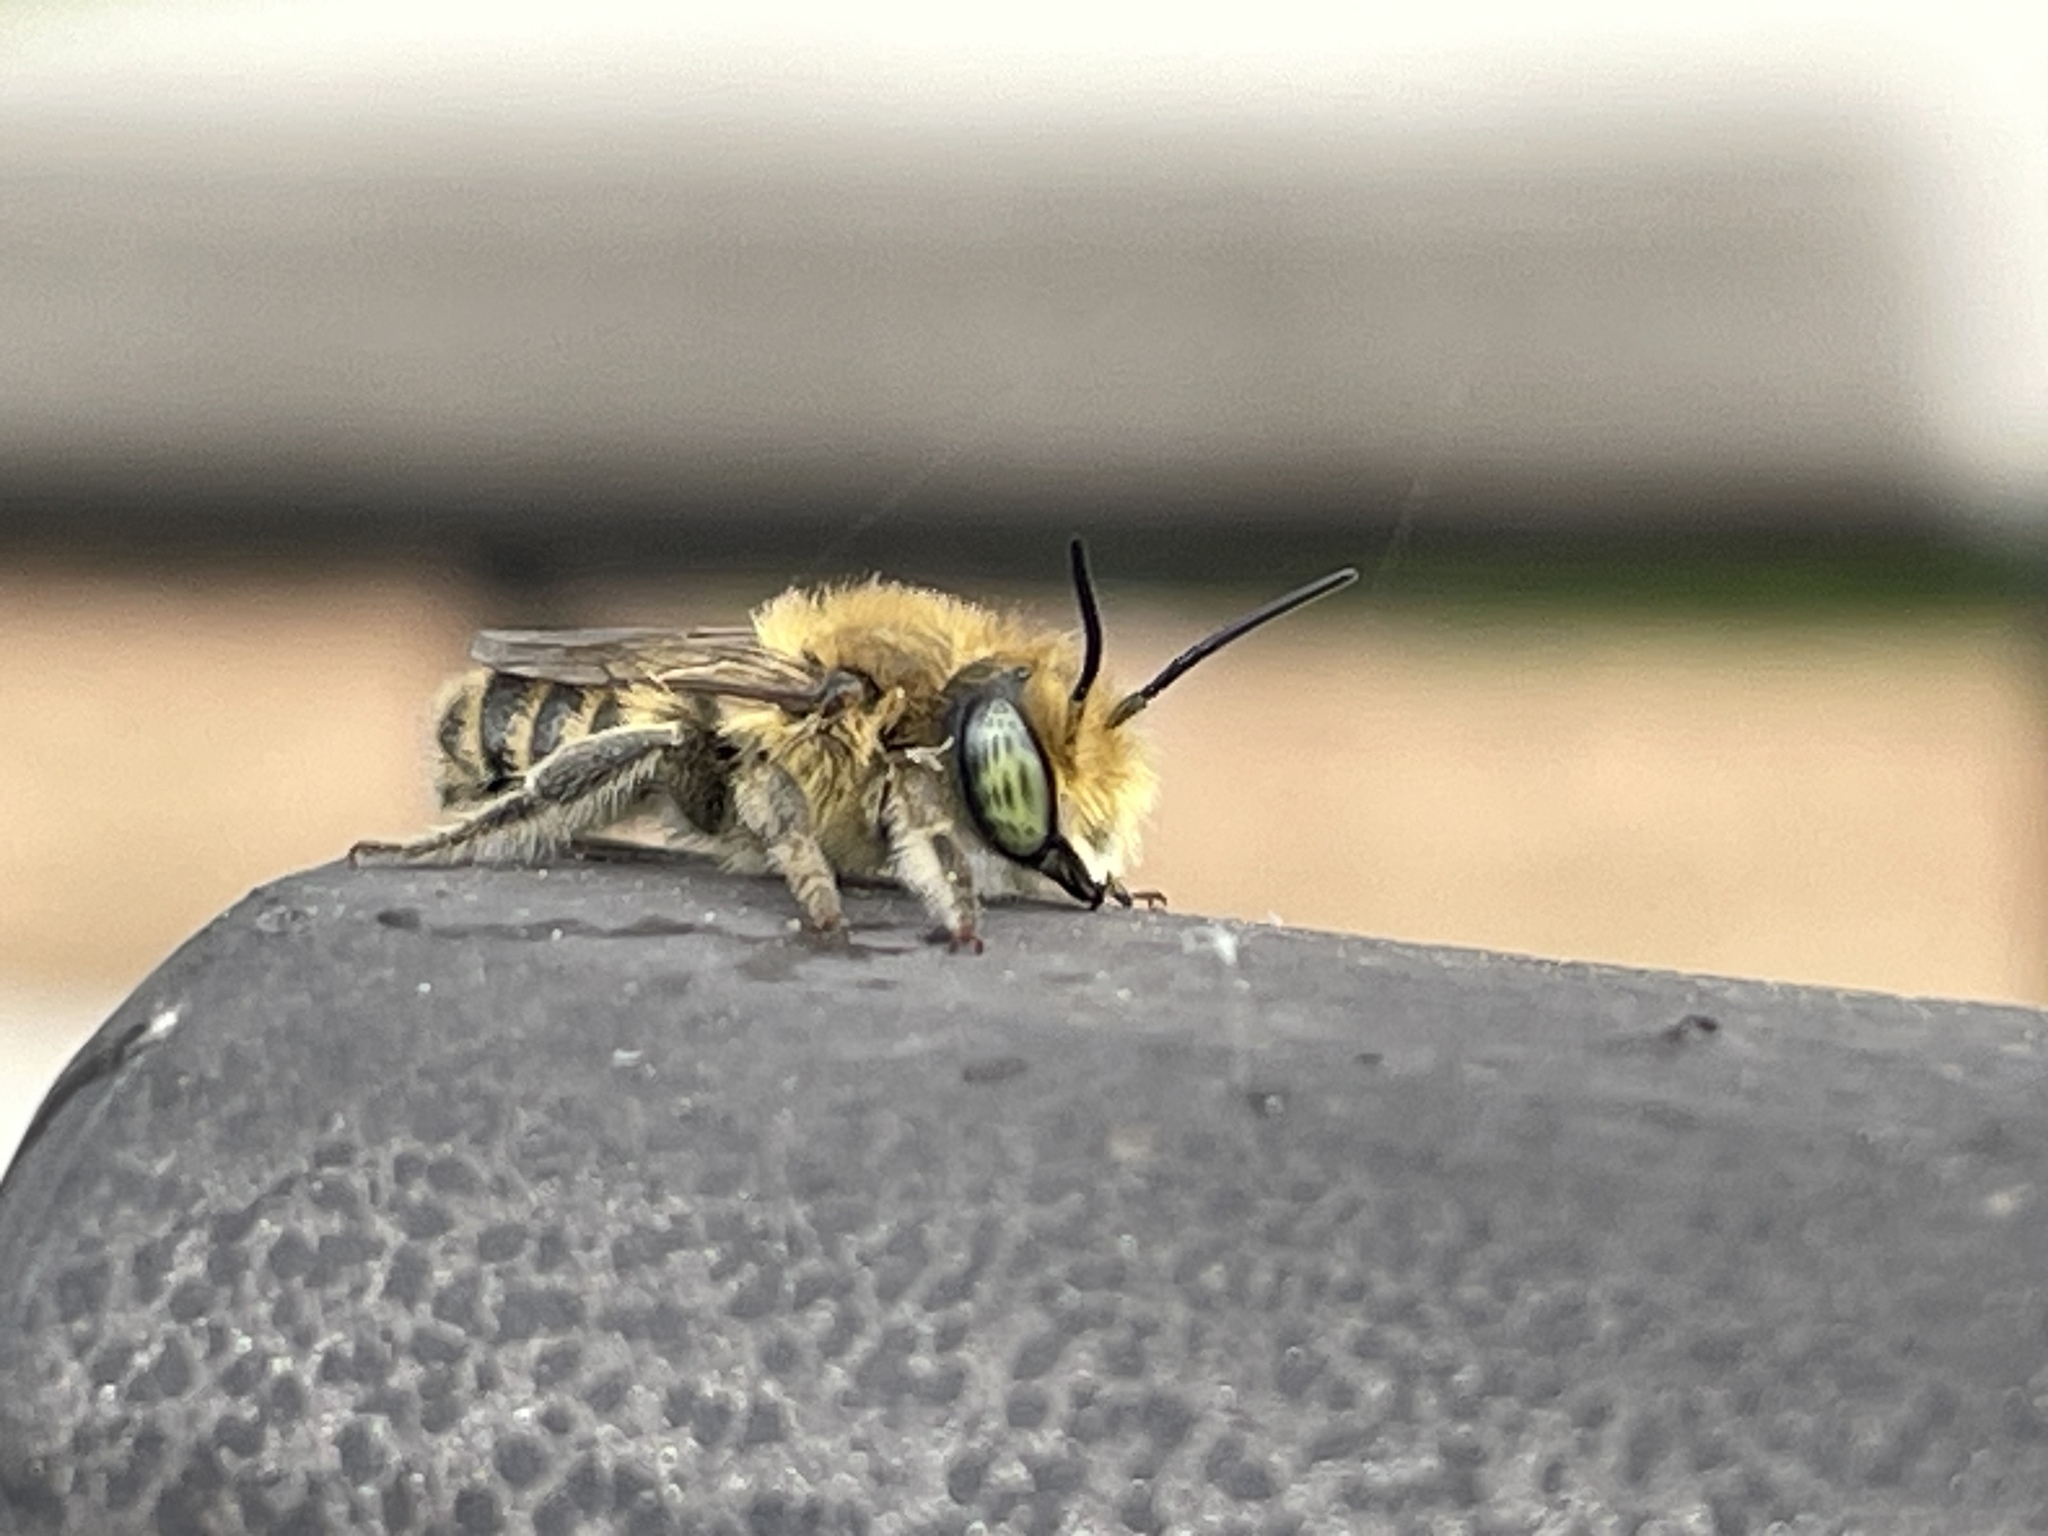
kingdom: Animalia
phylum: Arthropoda
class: Insecta
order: Hymenoptera
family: Megachilidae
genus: Megachile
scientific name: Megachile rotundata
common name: Alfalfa leafcutting bee
